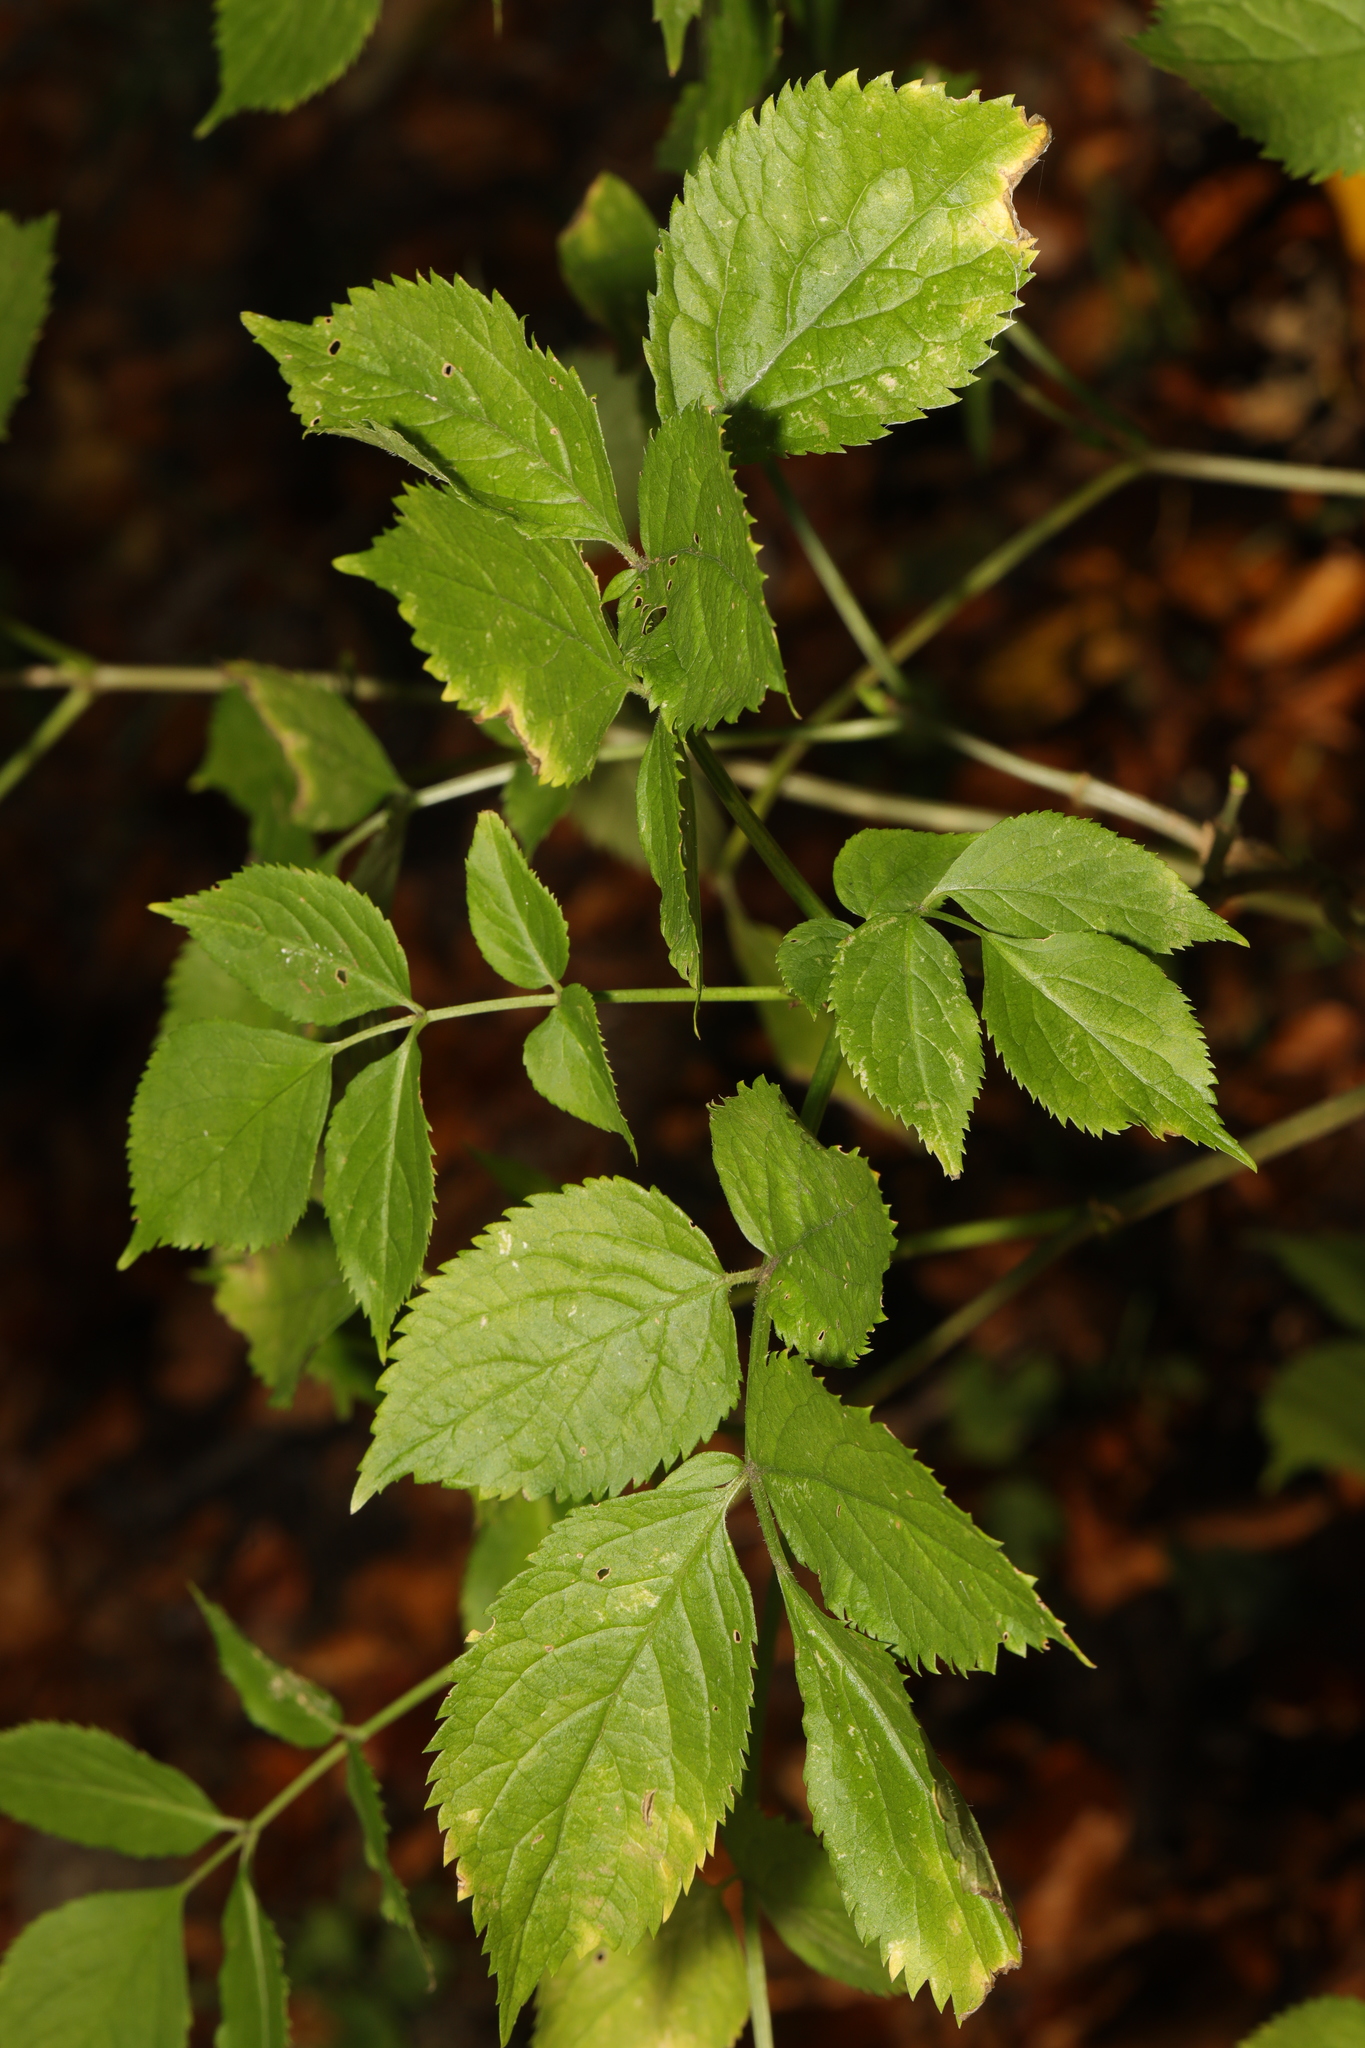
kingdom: Plantae
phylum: Tracheophyta
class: Magnoliopsida
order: Dipsacales
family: Viburnaceae
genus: Sambucus
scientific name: Sambucus nigra
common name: Elder
